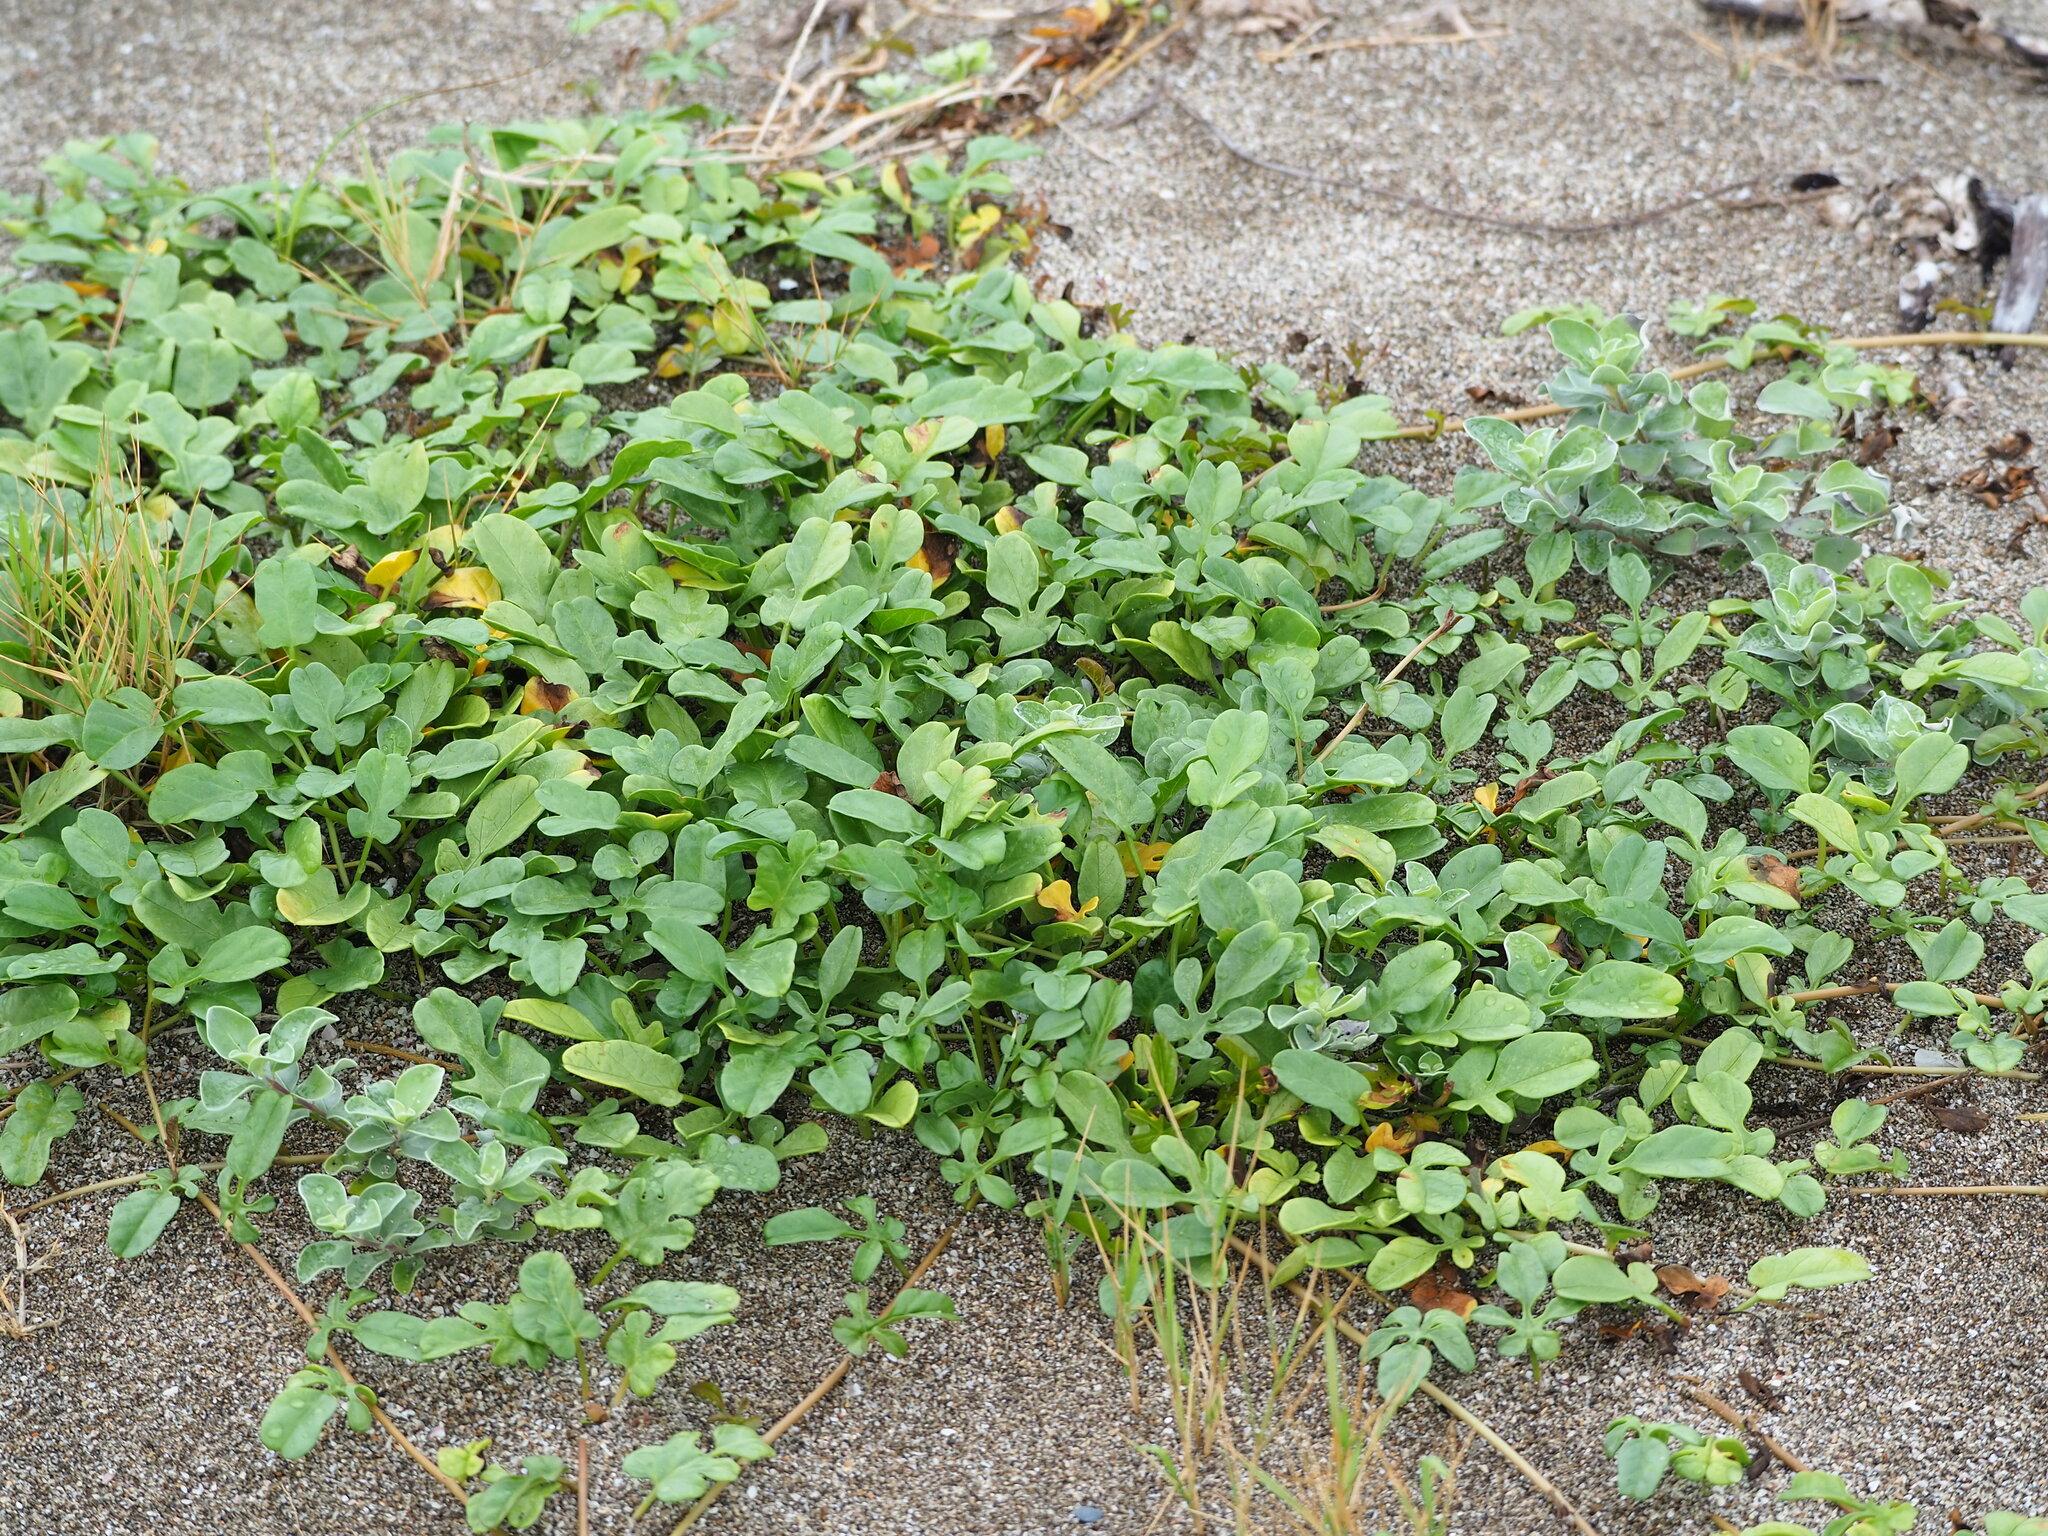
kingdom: Plantae
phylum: Tracheophyta
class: Magnoliopsida
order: Solanales
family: Convolvulaceae
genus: Ipomoea
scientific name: Ipomoea imperati
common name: Fiddle-leaf morning-glory
